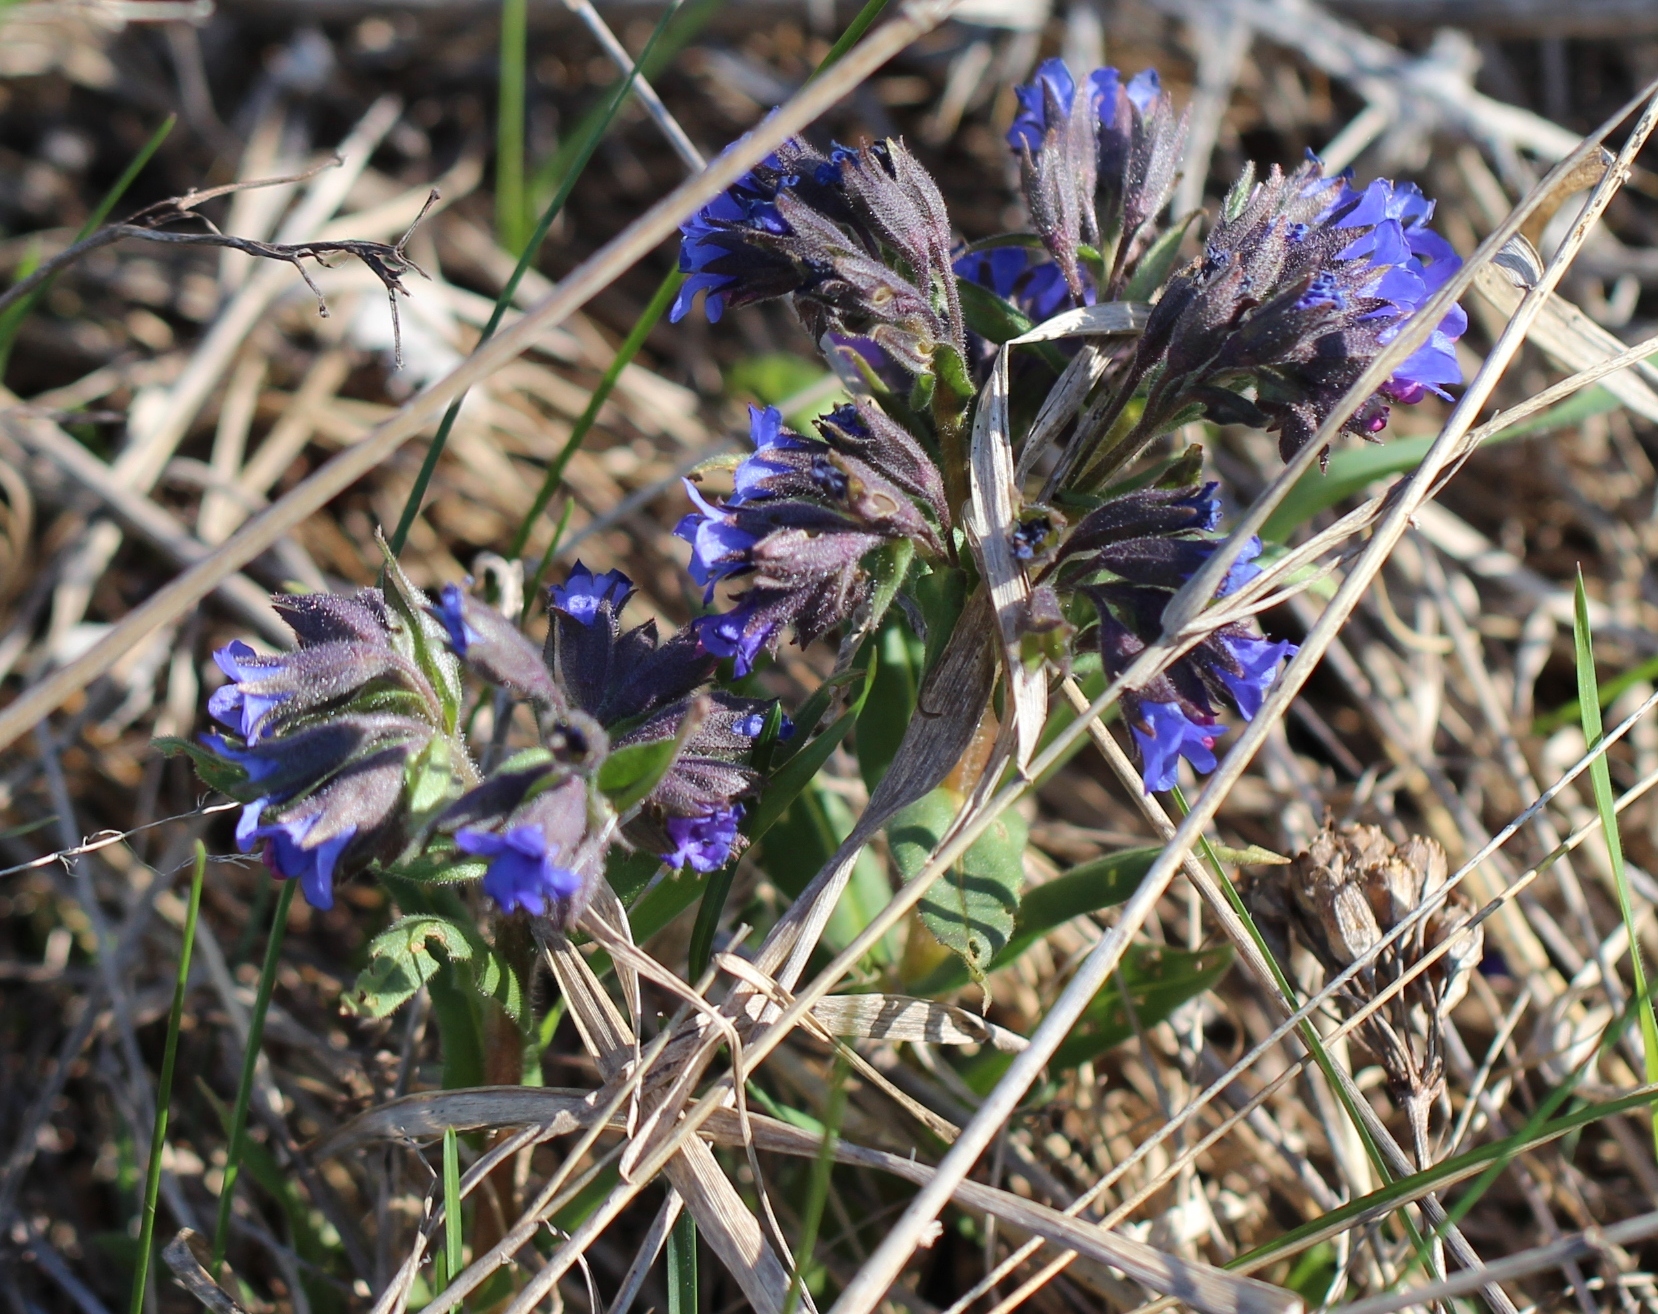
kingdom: Plantae
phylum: Tracheophyta
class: Magnoliopsida
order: Boraginales
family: Boraginaceae
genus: Pulmonaria
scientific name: Pulmonaria angustifolia
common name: Blue cowslip
